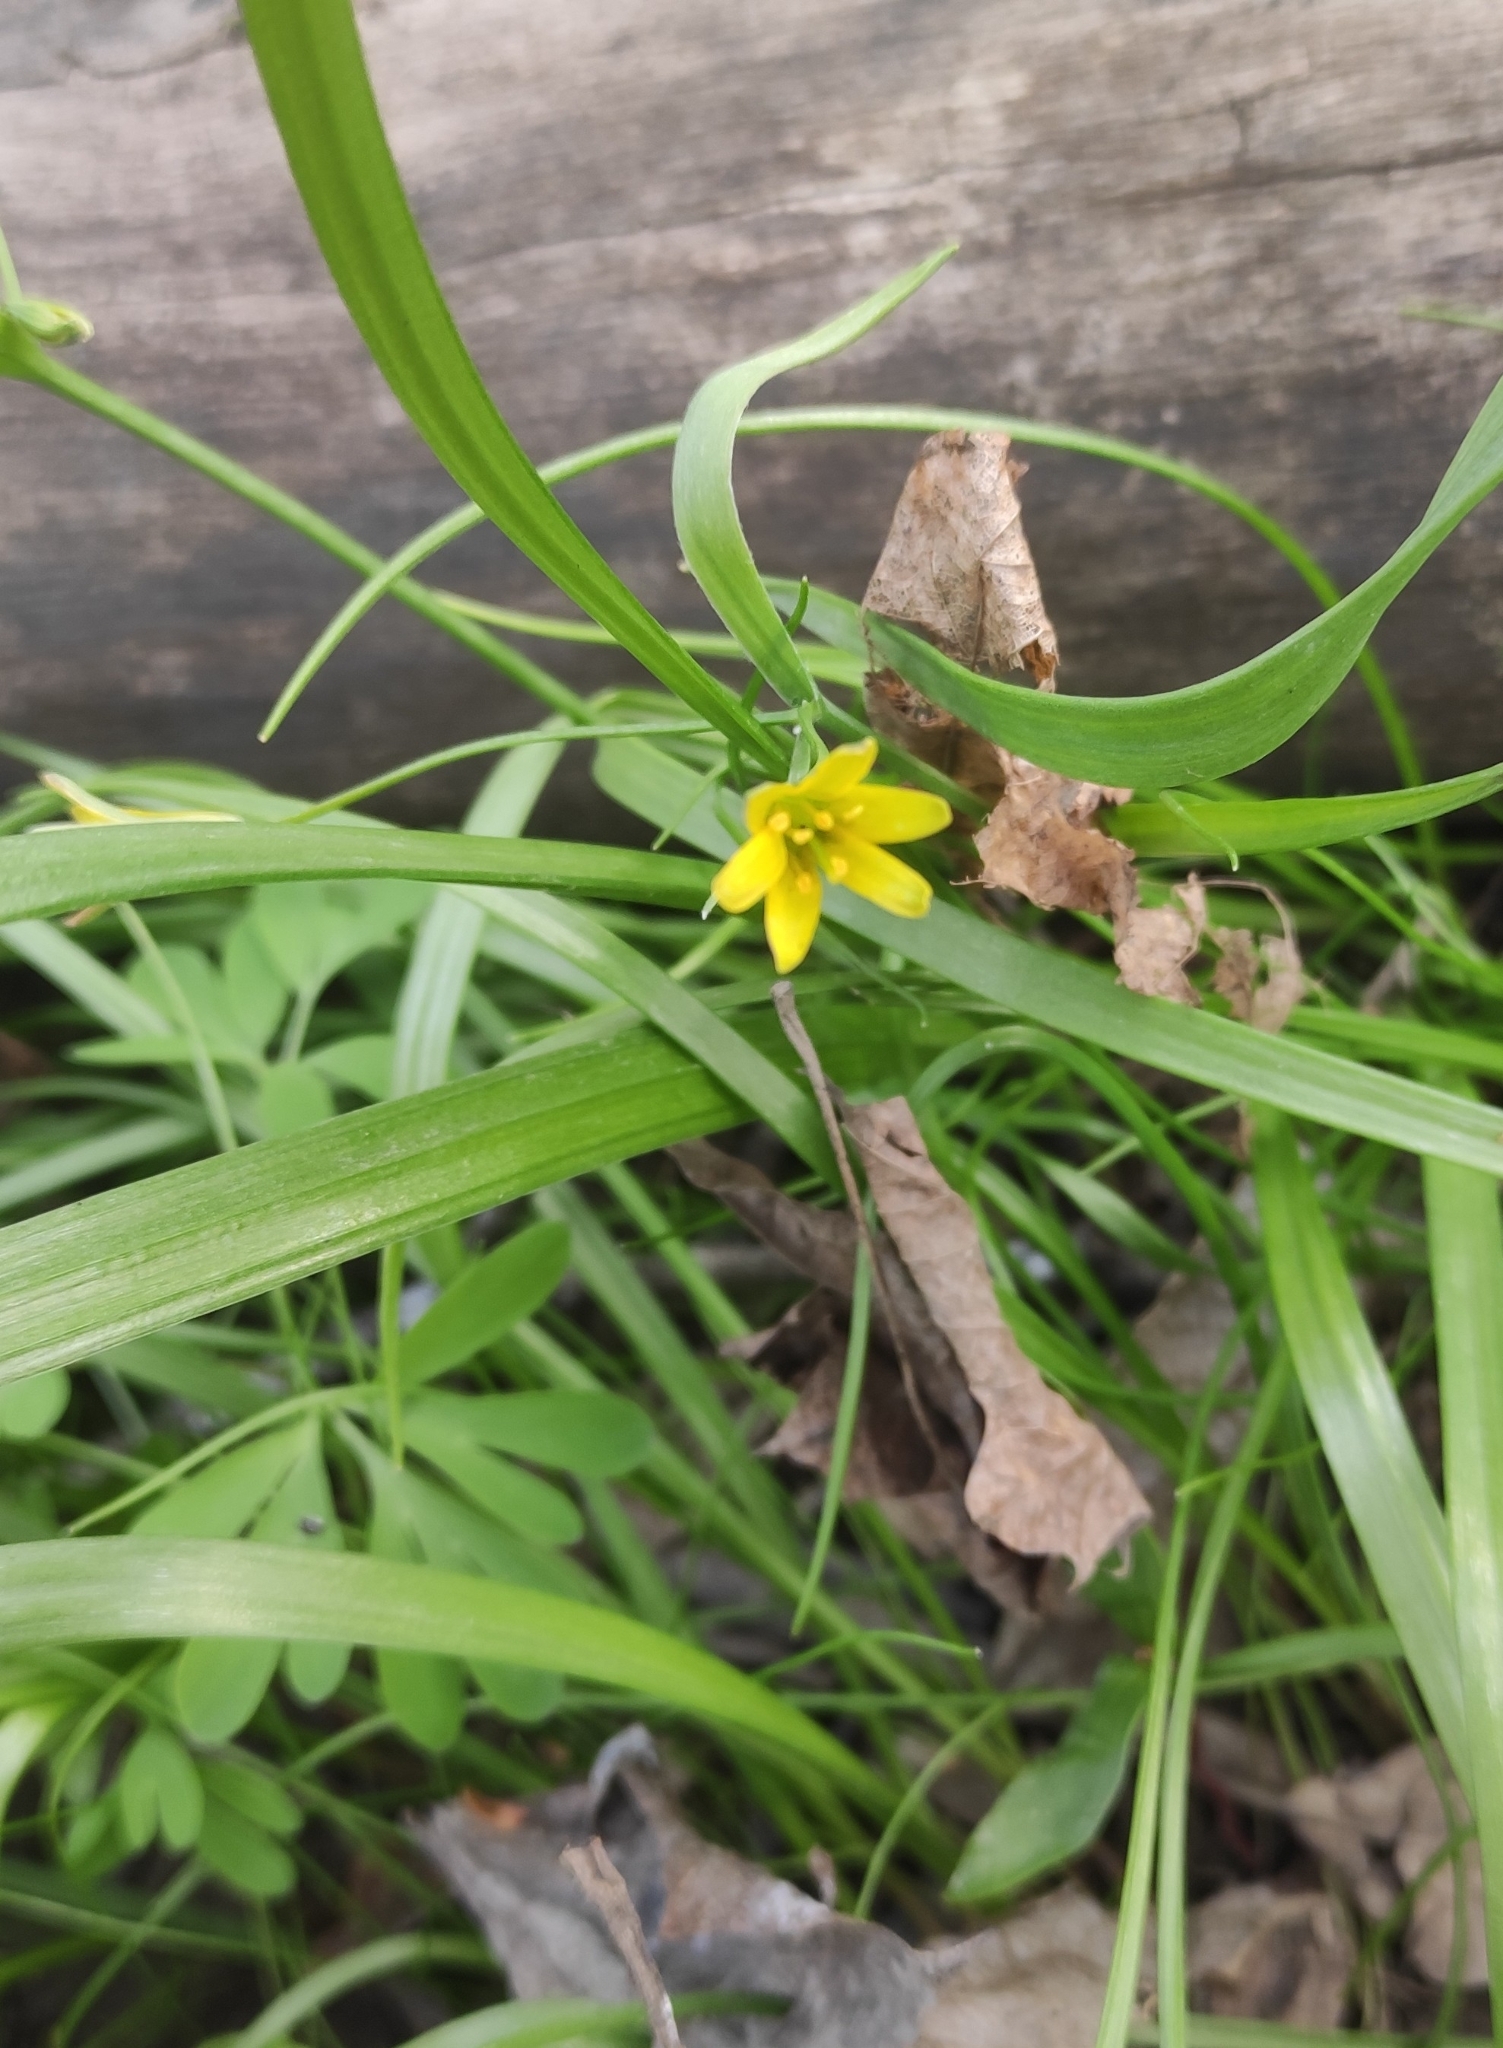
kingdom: Plantae
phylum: Tracheophyta
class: Liliopsida
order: Liliales
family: Liliaceae
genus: Gagea
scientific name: Gagea lutea
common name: Yellow star-of-bethlehem
